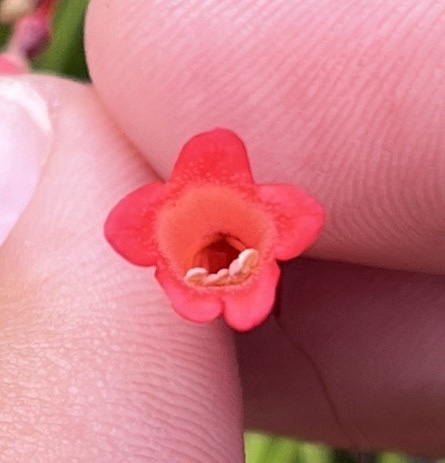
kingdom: Plantae
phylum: Tracheophyta
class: Magnoliopsida
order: Lamiales
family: Plantaginaceae
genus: Russelia
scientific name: Russelia equisetiformis
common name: Fountainbush
